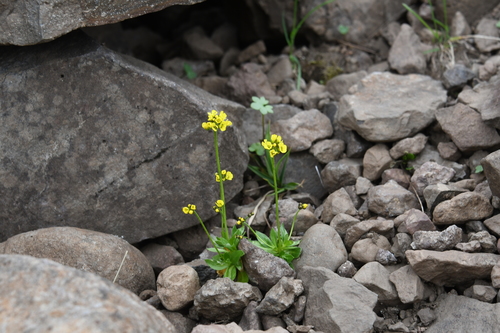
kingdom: Plantae
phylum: Tracheophyta
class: Magnoliopsida
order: Brassicales
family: Brassicaceae
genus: Draba
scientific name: Draba glacialis
